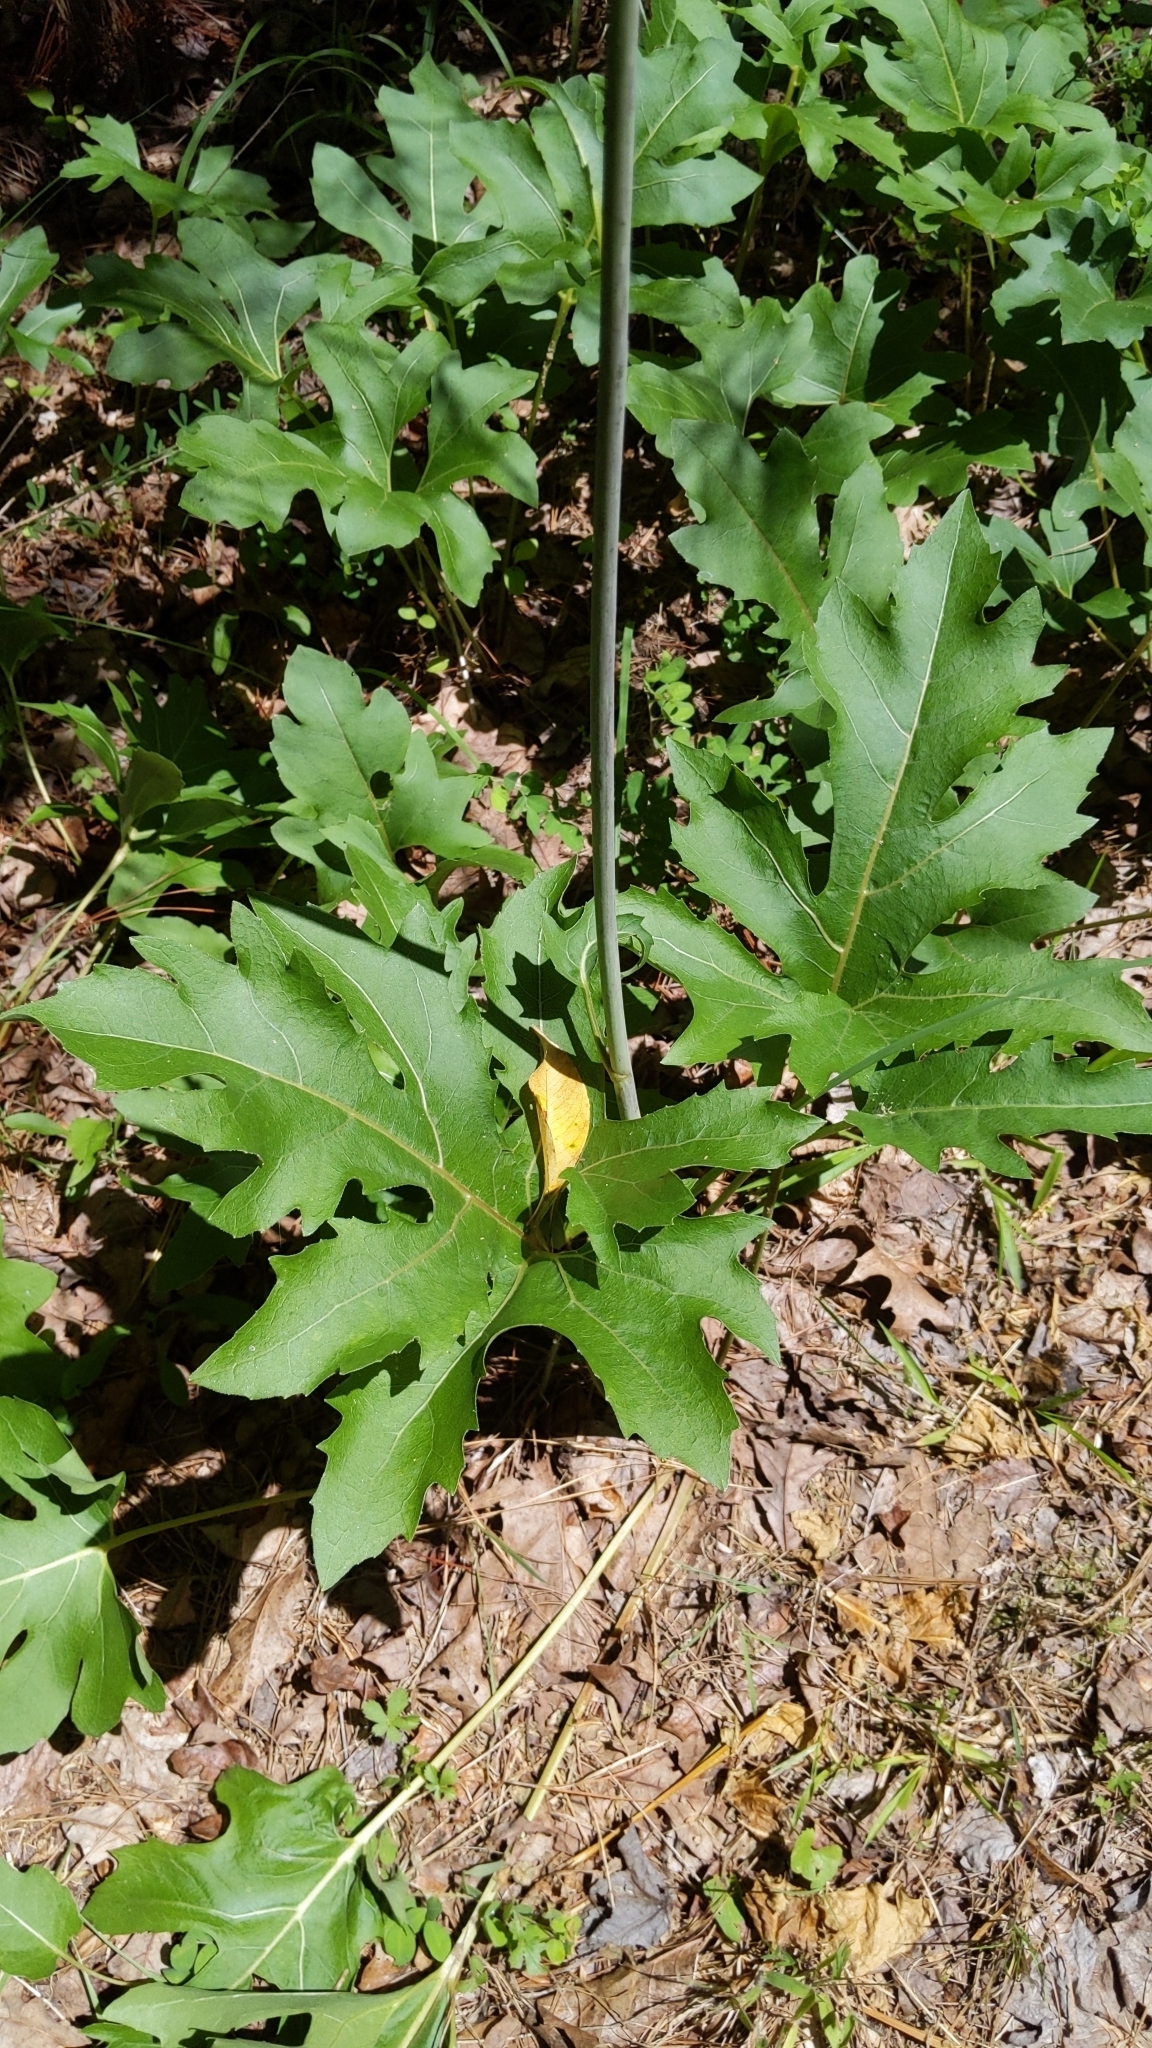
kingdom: Plantae
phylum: Tracheophyta
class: Magnoliopsida
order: Asterales
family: Asteraceae
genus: Silphium
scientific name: Silphium compositum
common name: Lesser basal-leaf rosinweed
